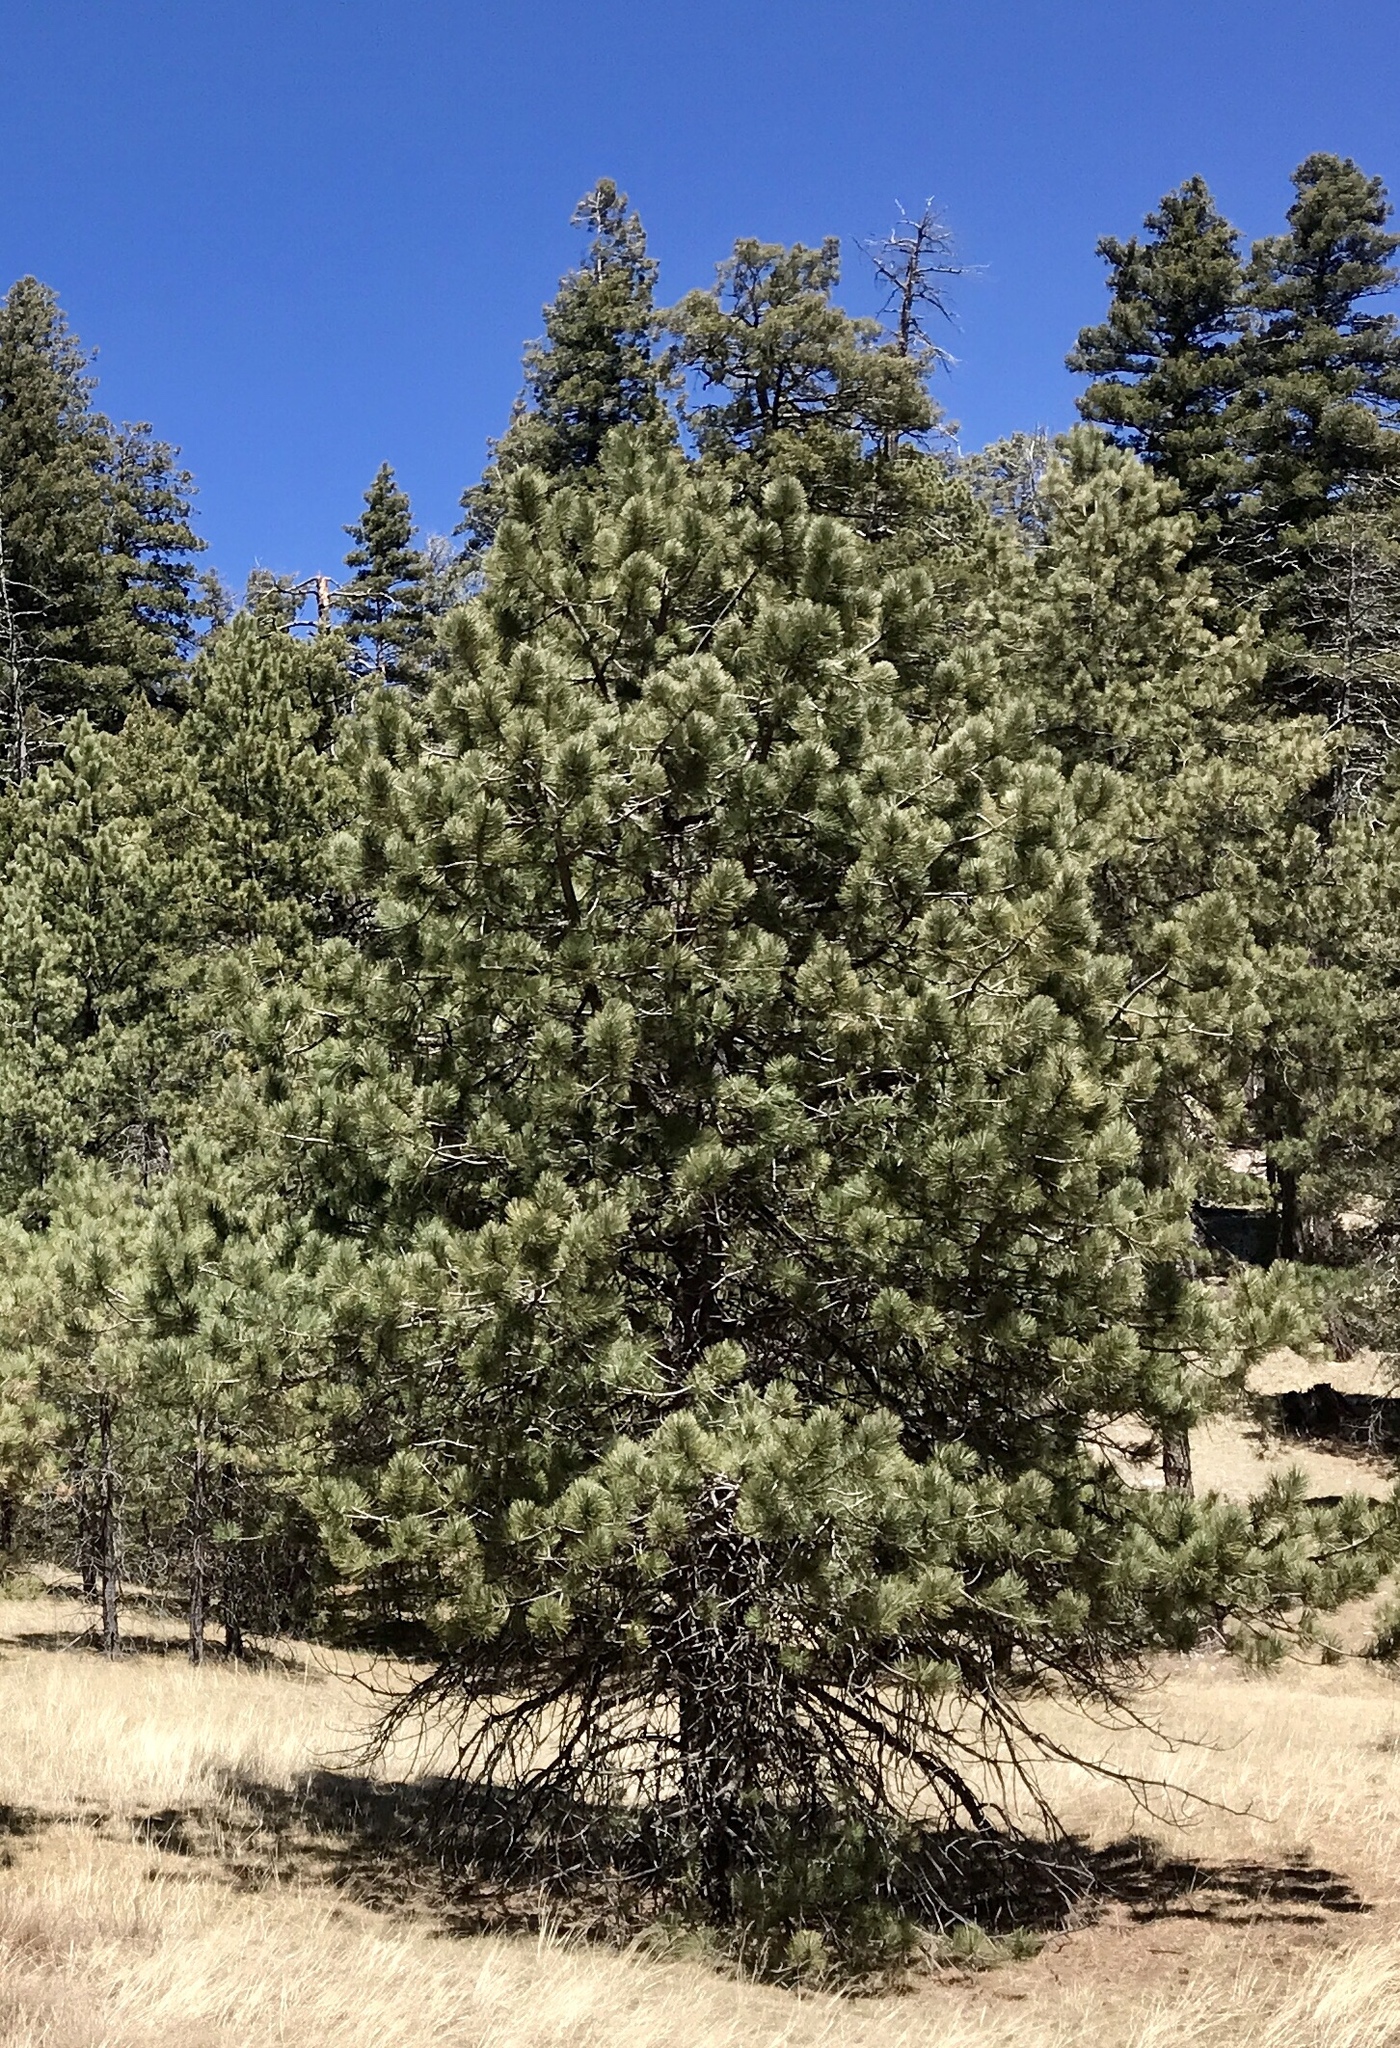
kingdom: Plantae
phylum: Tracheophyta
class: Pinopsida
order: Pinales
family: Pinaceae
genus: Pinus
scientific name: Pinus ponderosa
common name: Western yellow-pine
